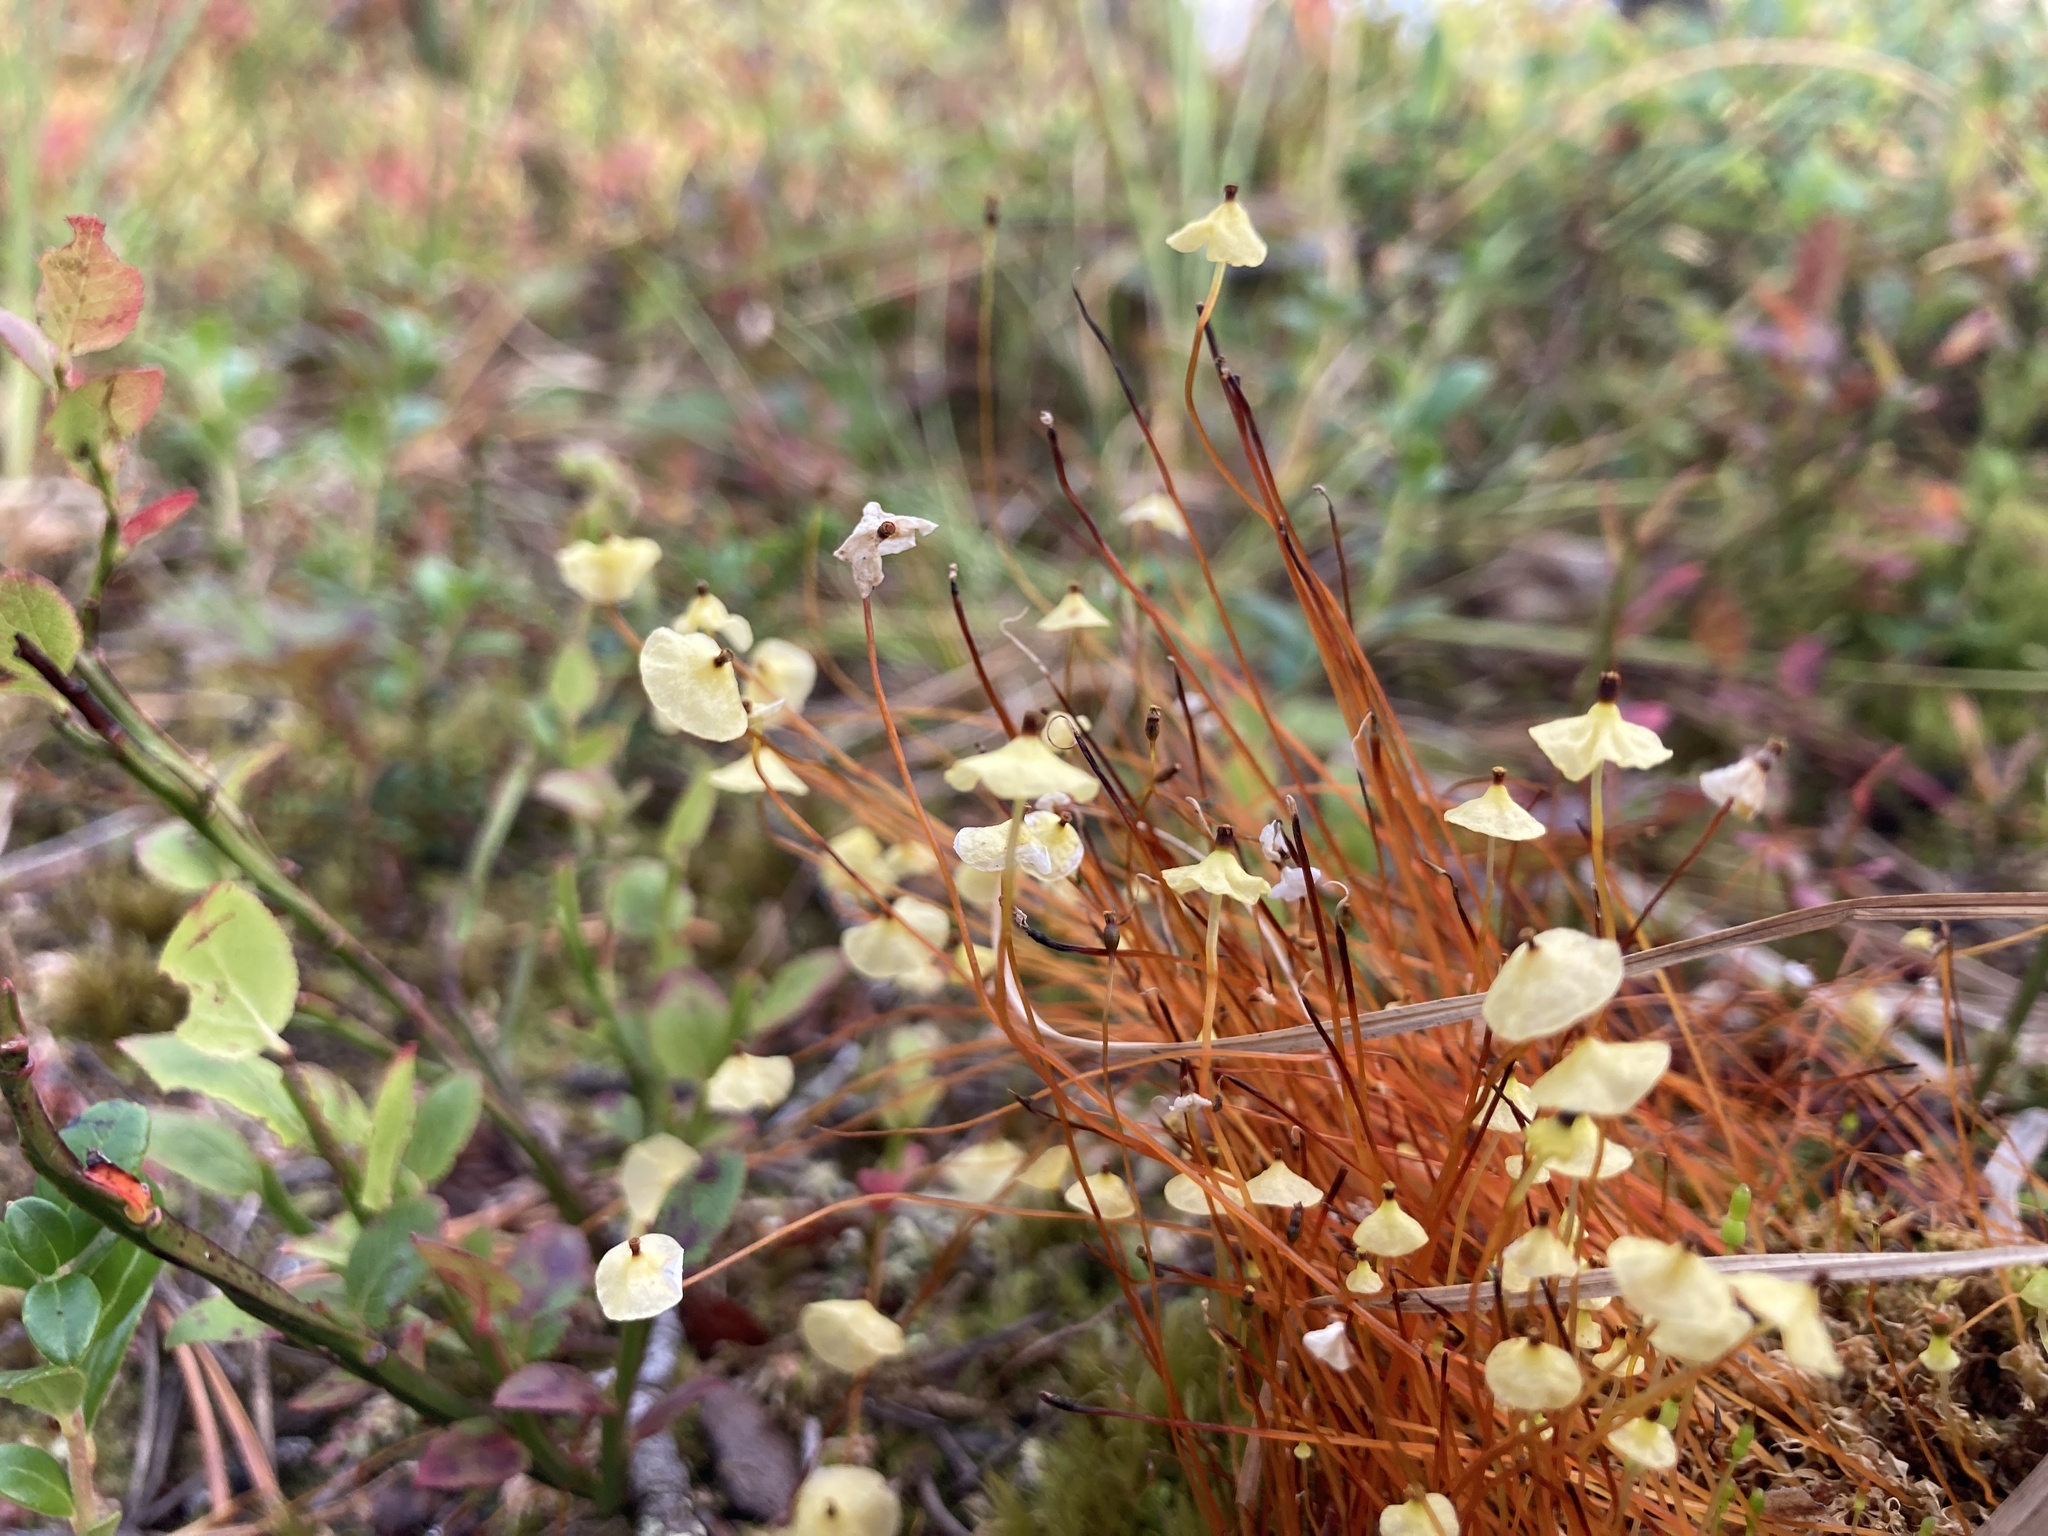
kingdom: Plantae
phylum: Bryophyta
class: Bryopsida
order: Splachnales
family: Splachnaceae
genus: Splachnum
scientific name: Splachnum luteum
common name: Yellow dung moss
